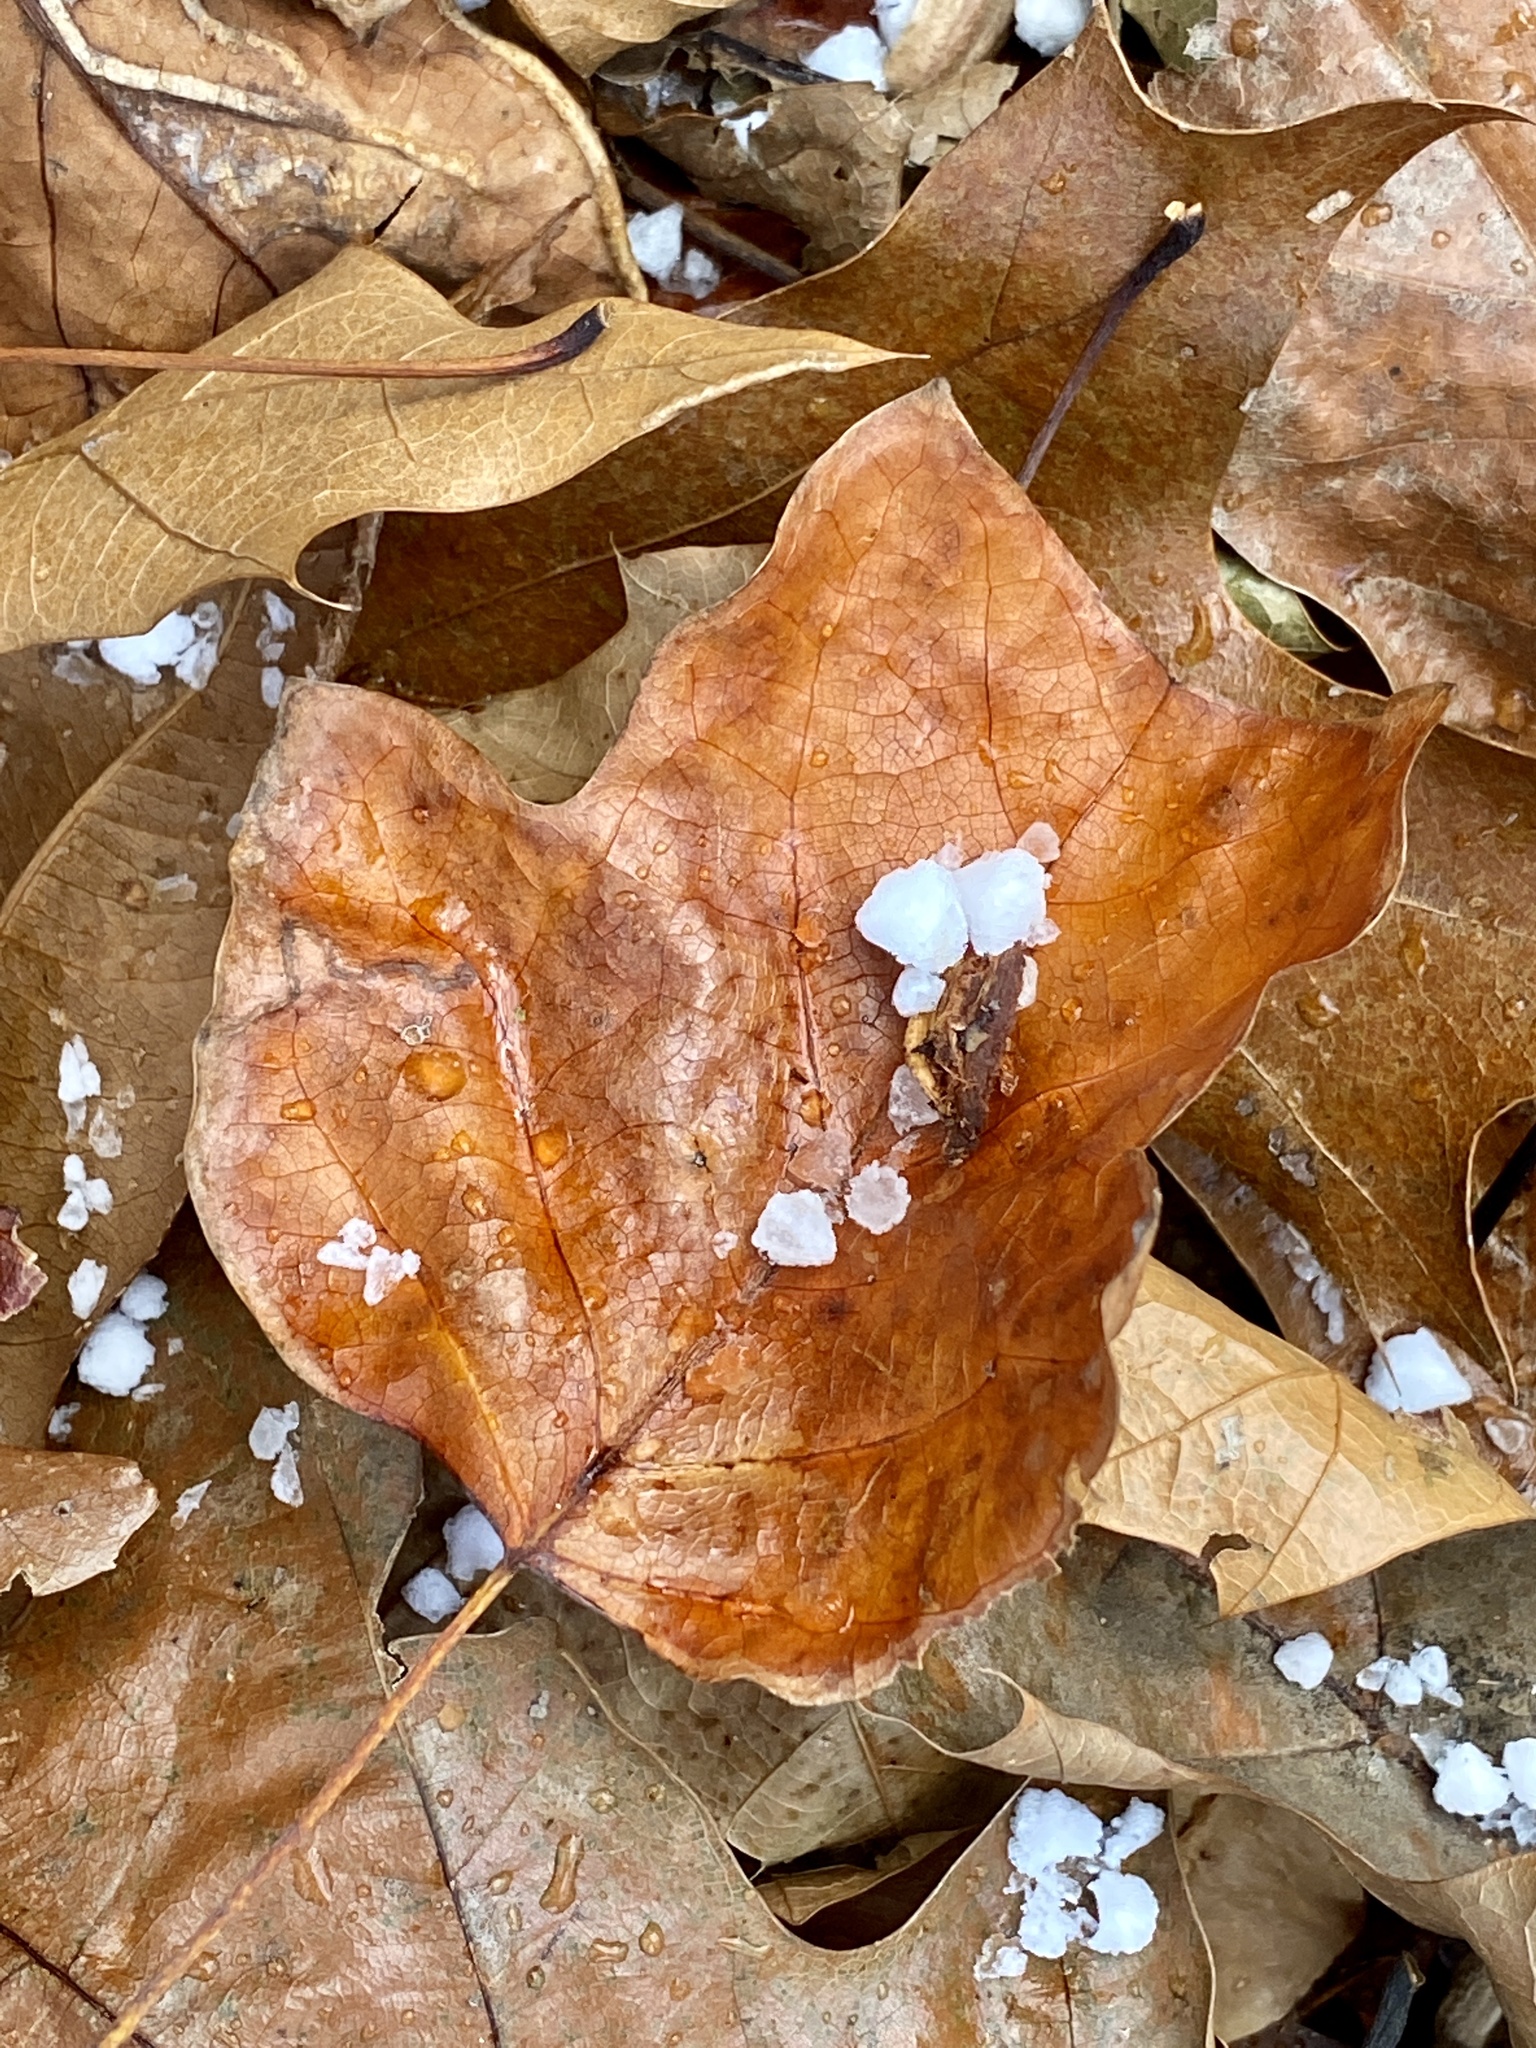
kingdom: Plantae
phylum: Tracheophyta
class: Magnoliopsida
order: Magnoliales
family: Magnoliaceae
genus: Liriodendron
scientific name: Liriodendron tulipifera
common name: Tulip tree
